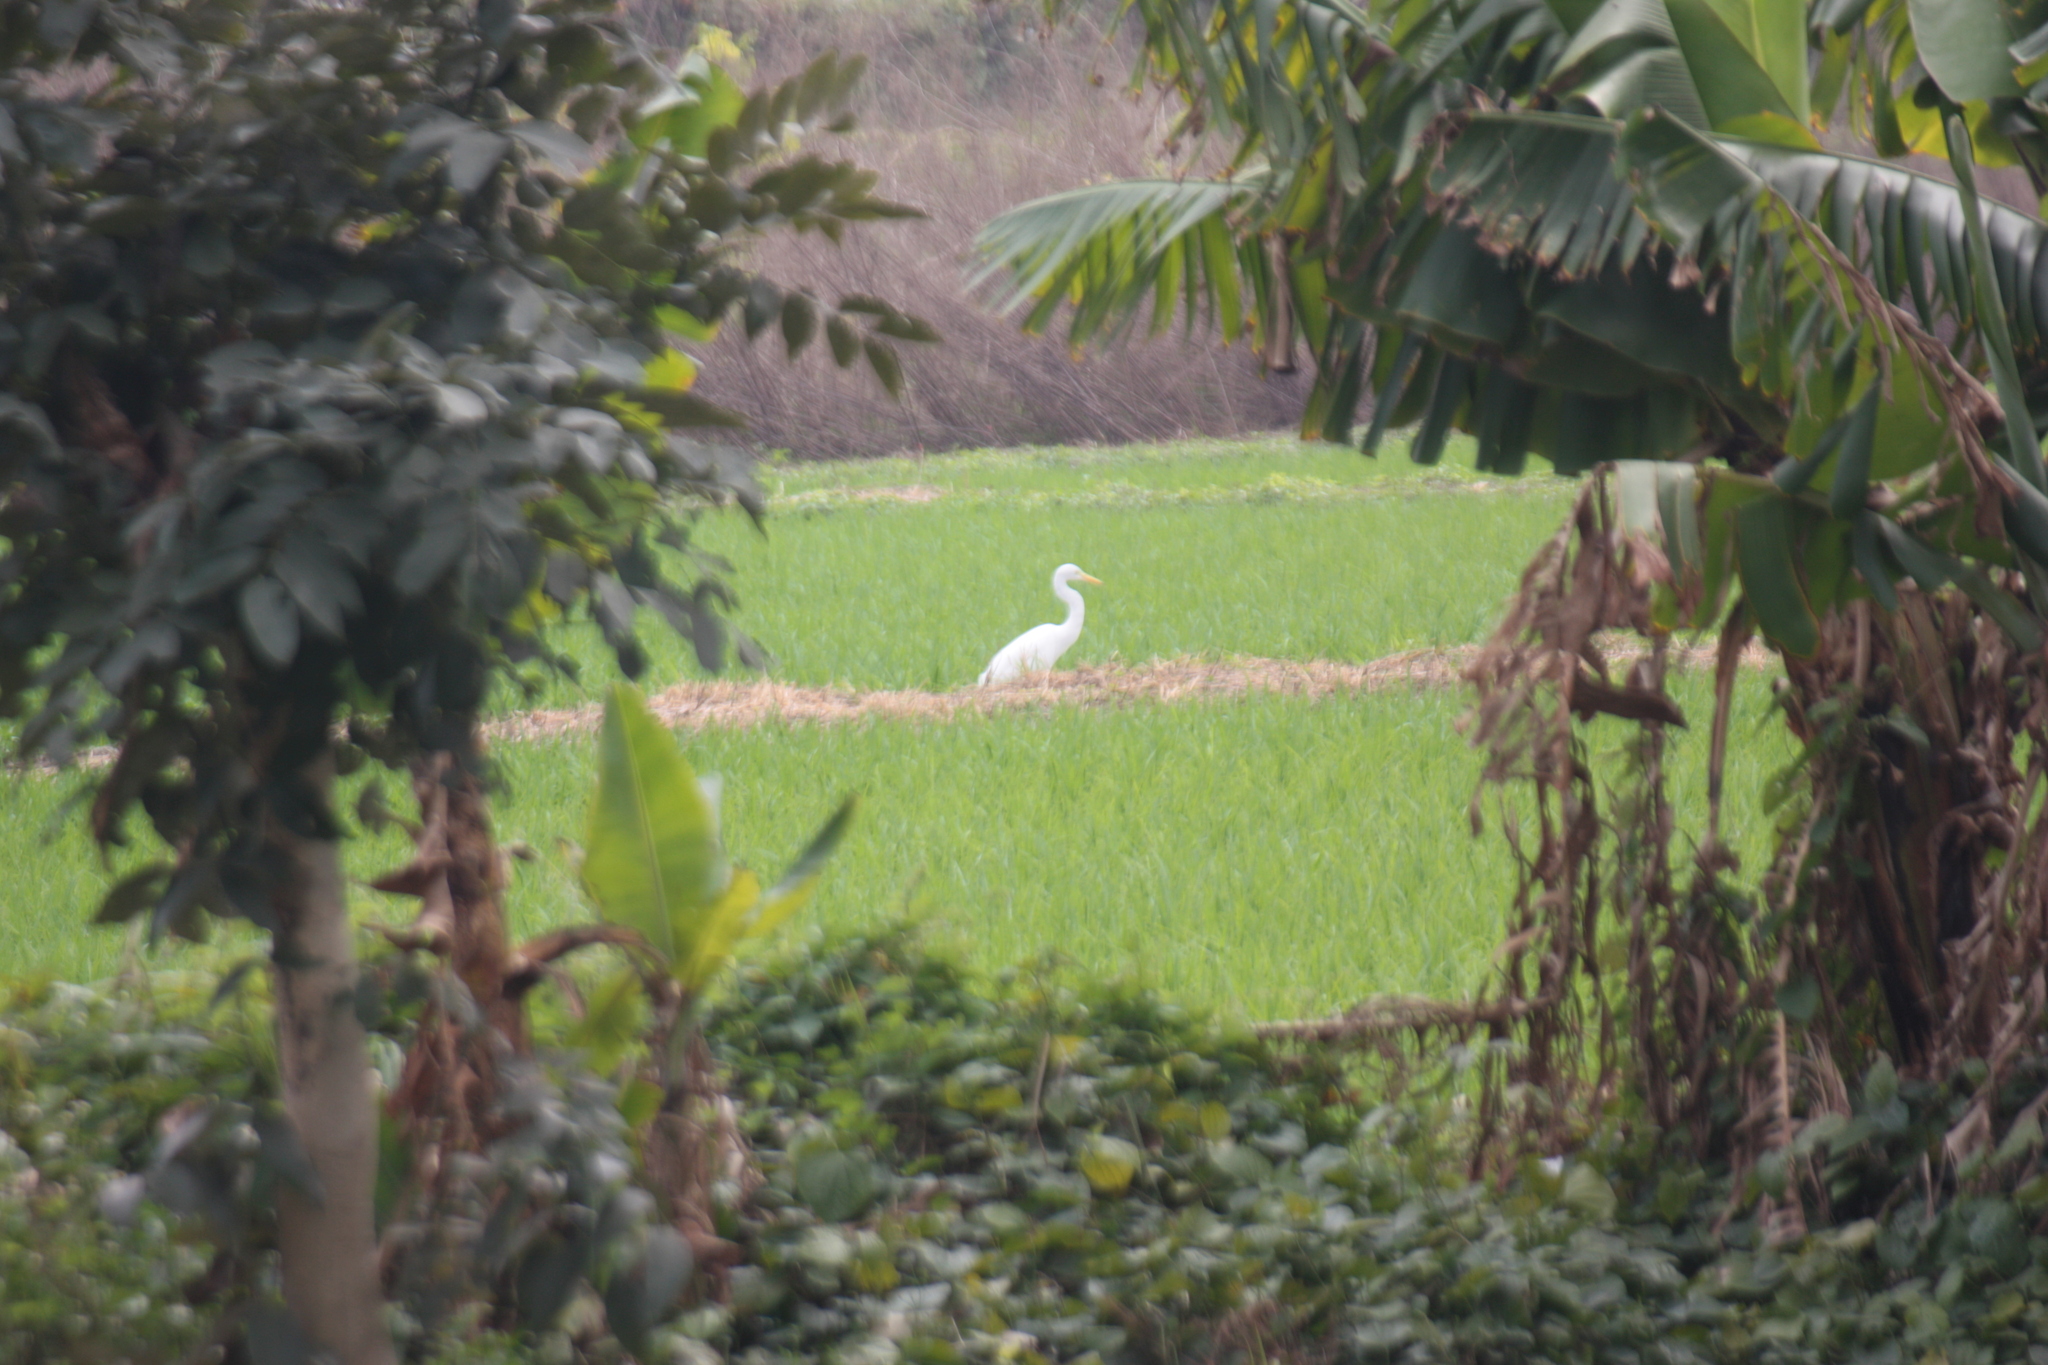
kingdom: Animalia
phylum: Chordata
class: Aves
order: Pelecaniformes
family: Ardeidae
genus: Egretta
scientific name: Egretta intermedia
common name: Intermediate egret
